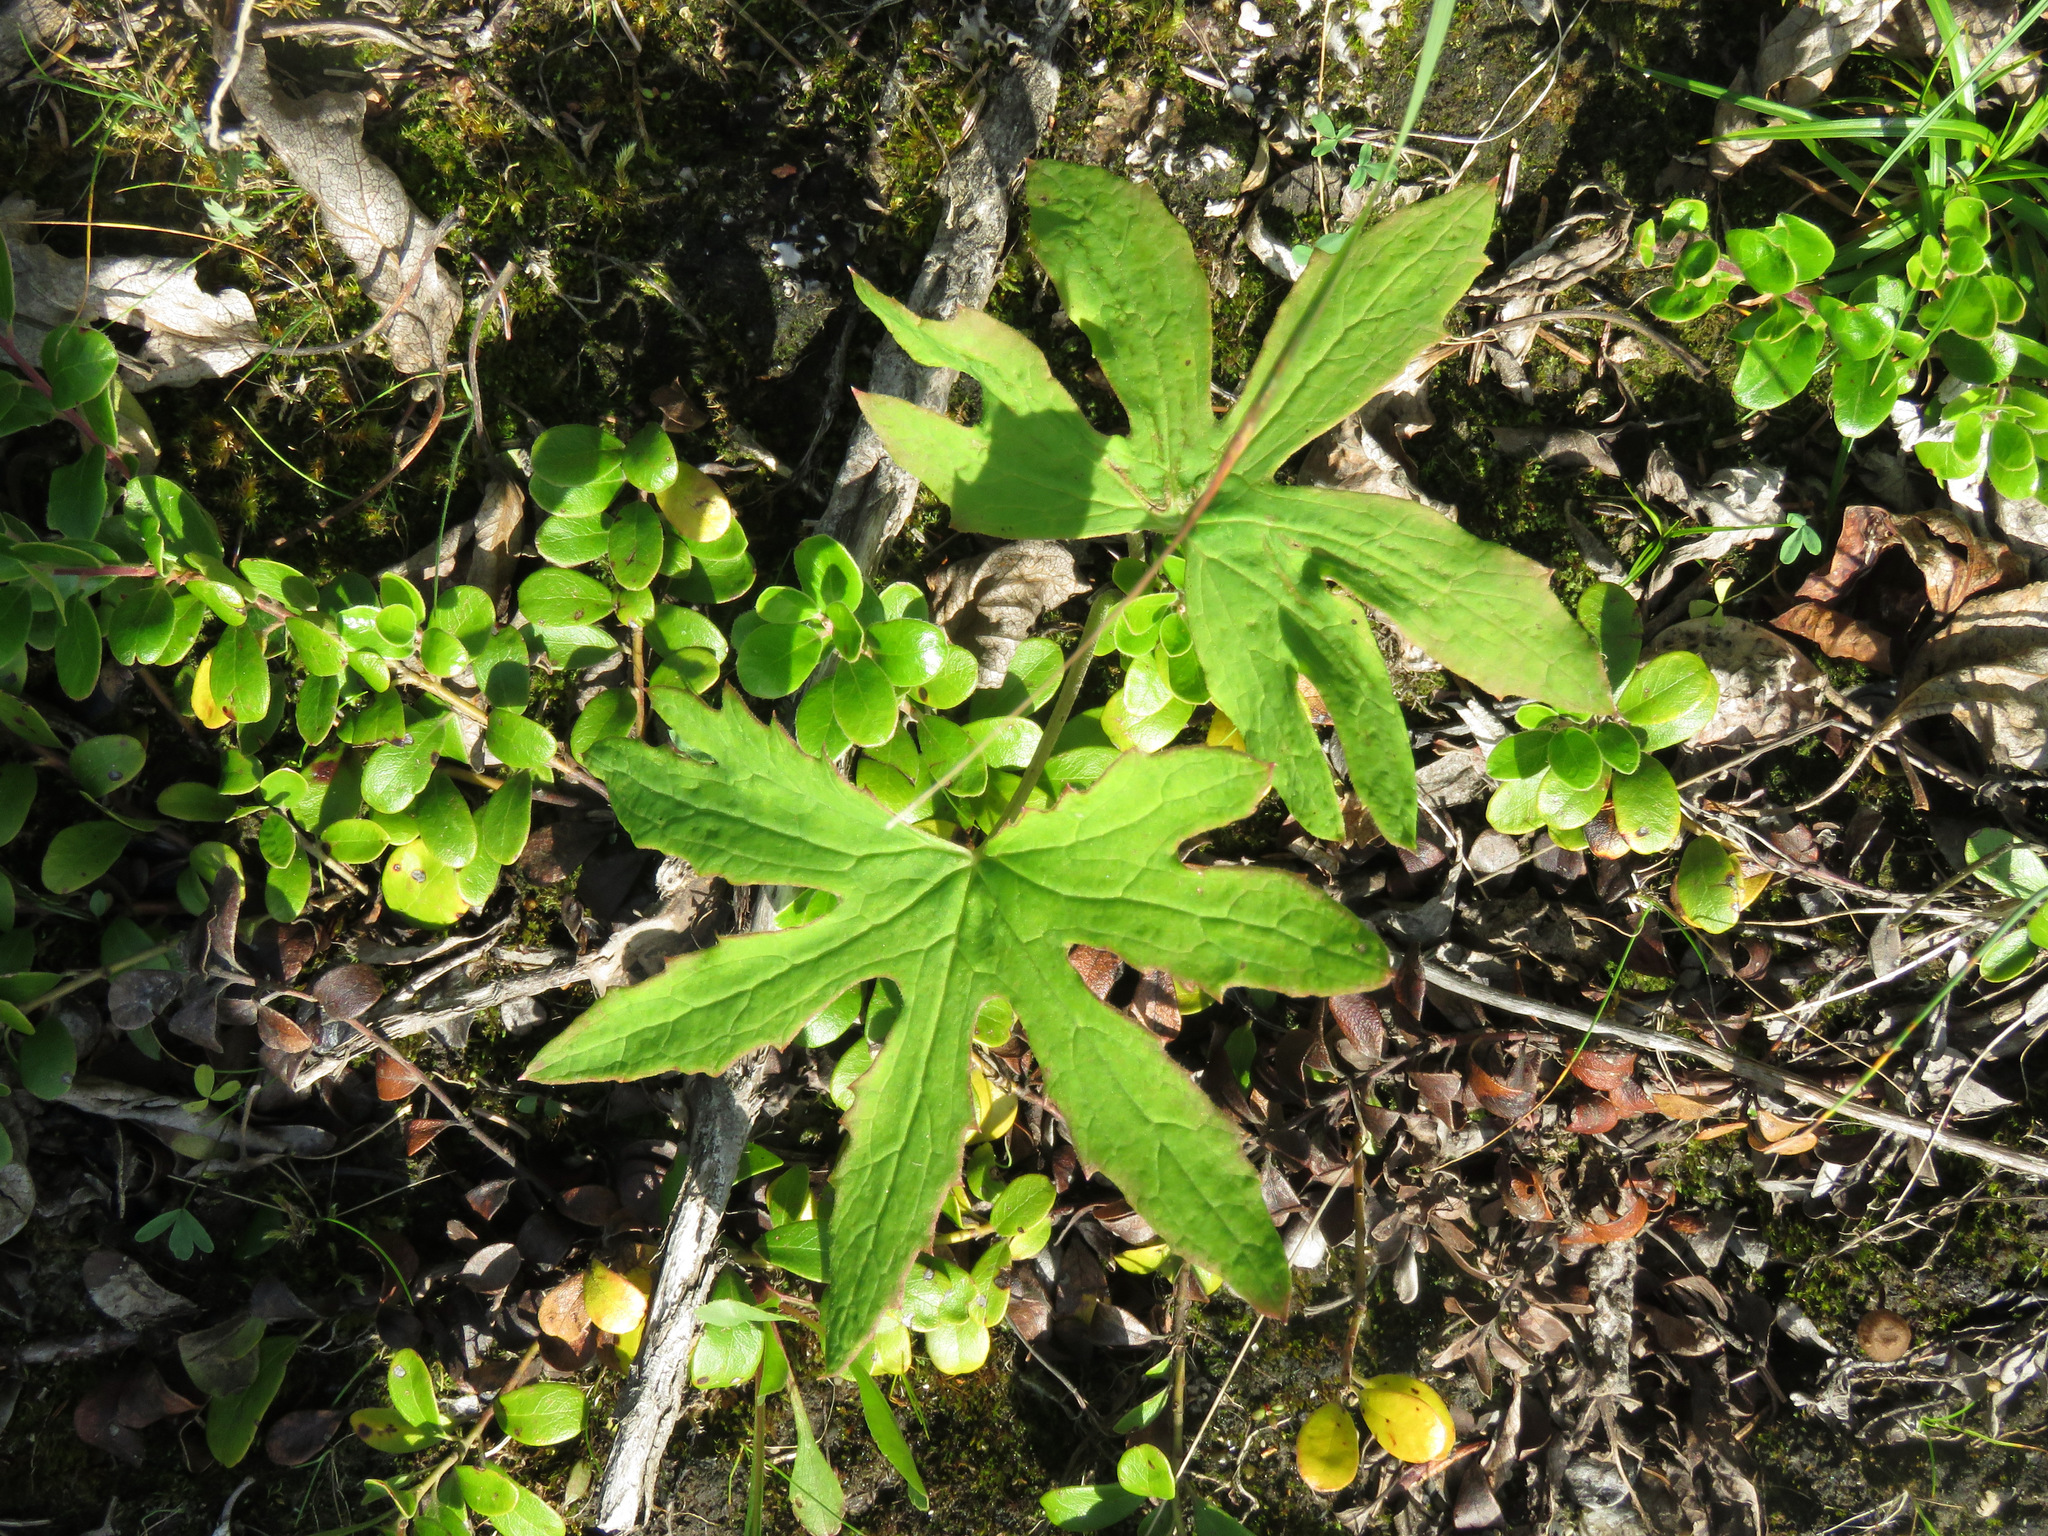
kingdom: Plantae
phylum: Tracheophyta
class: Magnoliopsida
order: Asterales
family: Asteraceae
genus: Petasites
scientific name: Petasites frigidus
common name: Arctic butterbur
